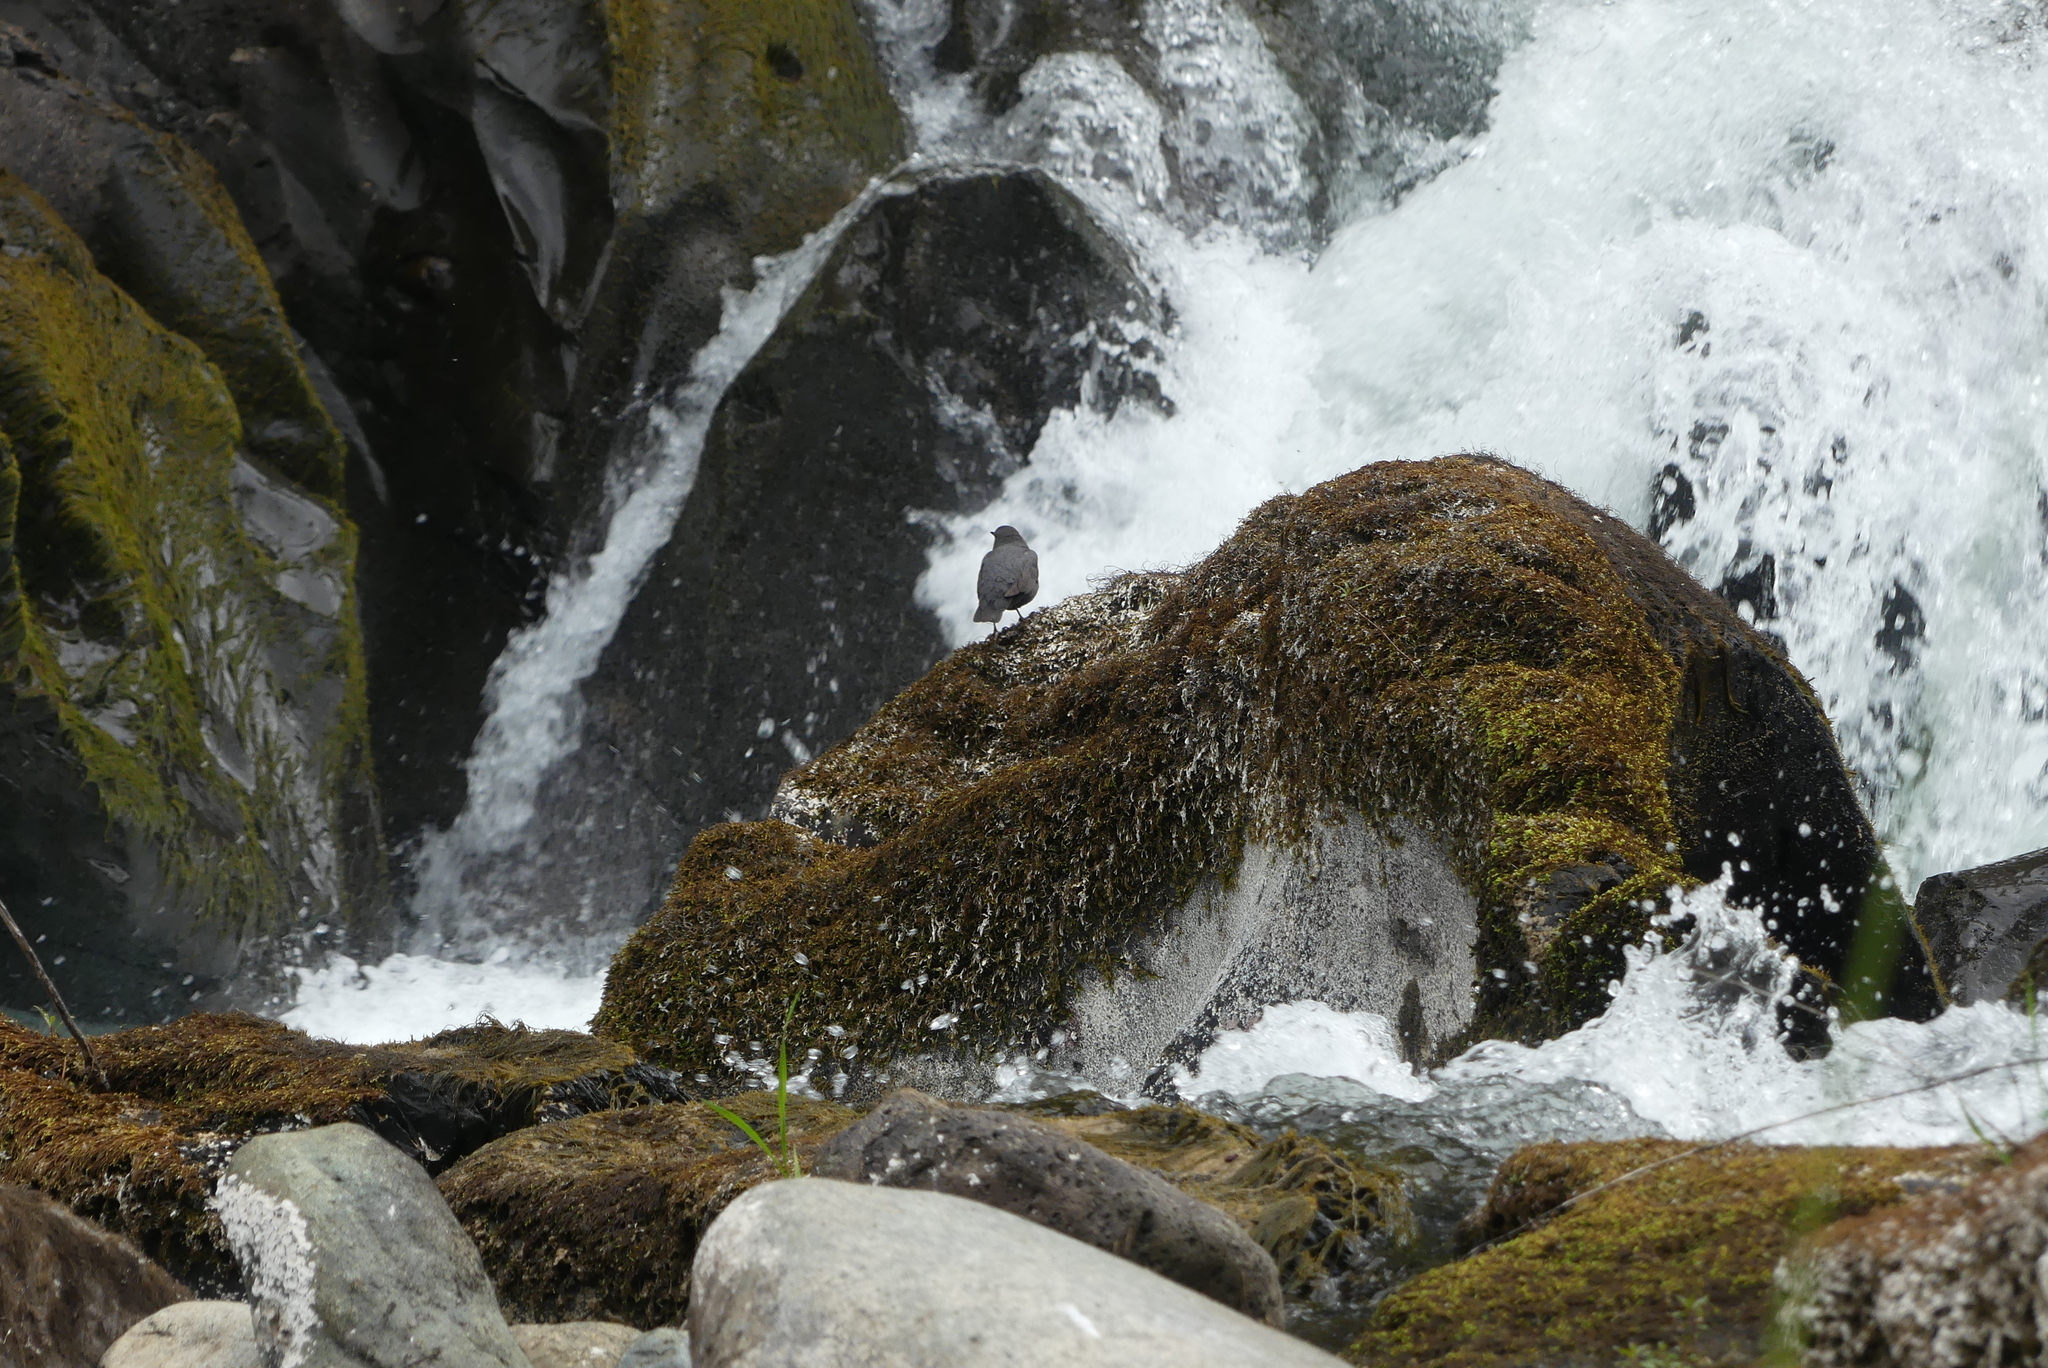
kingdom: Animalia
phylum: Chordata
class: Aves
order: Passeriformes
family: Cinclidae
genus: Cinclus
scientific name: Cinclus mexicanus
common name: American dipper
